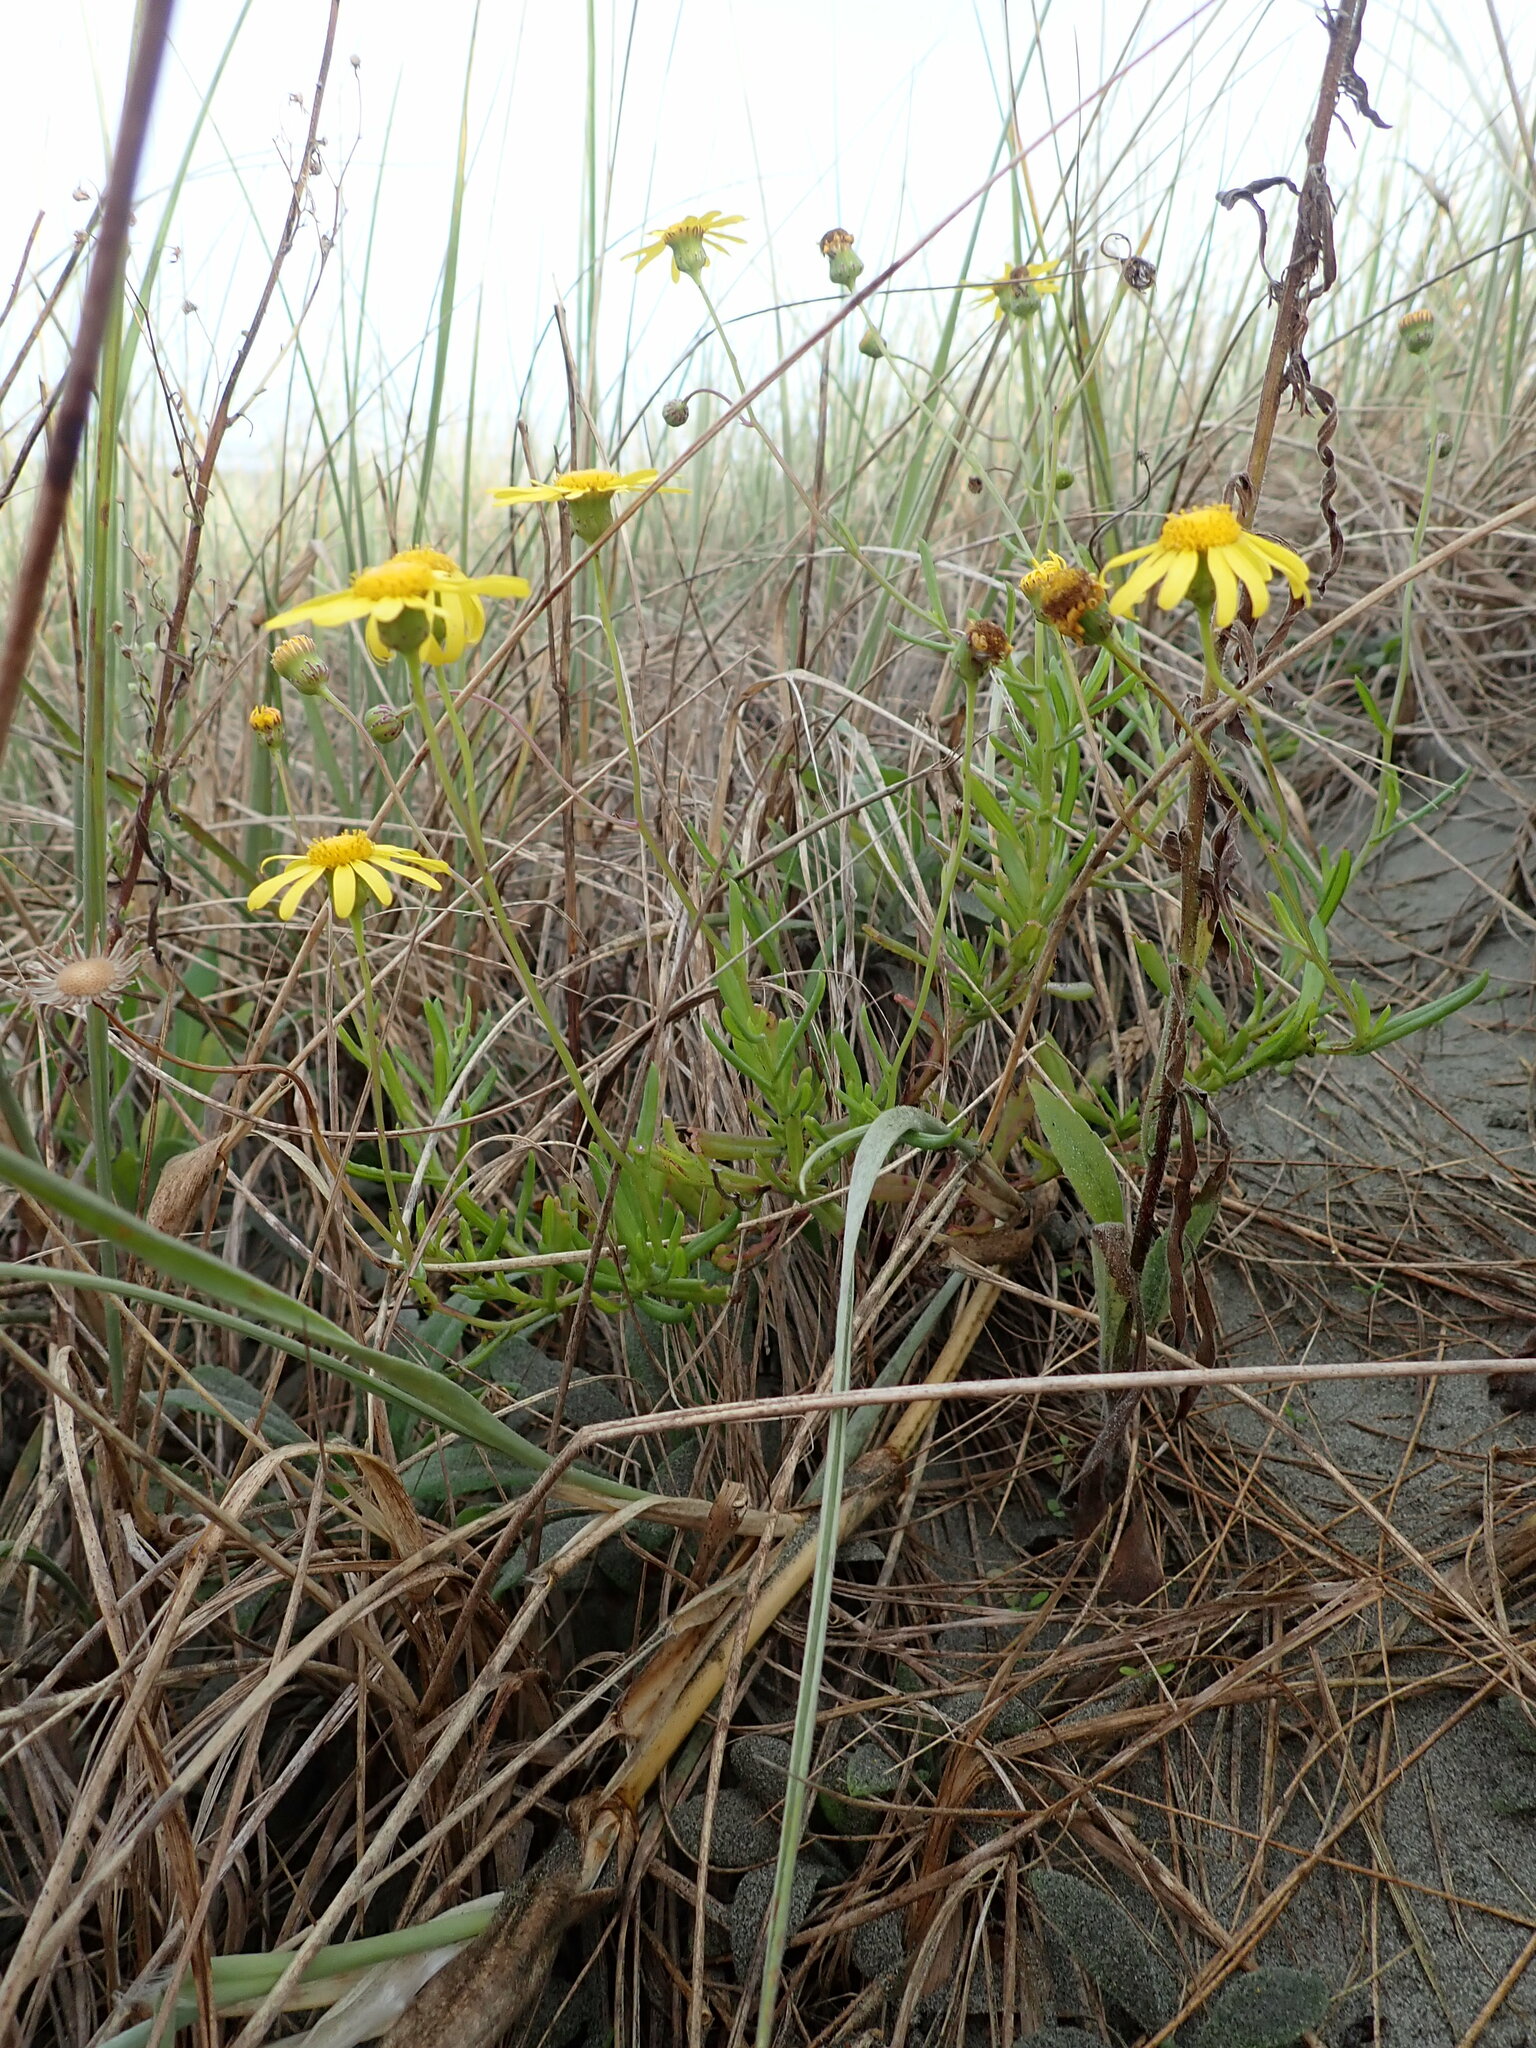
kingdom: Plantae
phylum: Tracheophyta
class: Magnoliopsida
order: Asterales
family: Asteraceae
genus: Senecio
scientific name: Senecio skirrhodon
